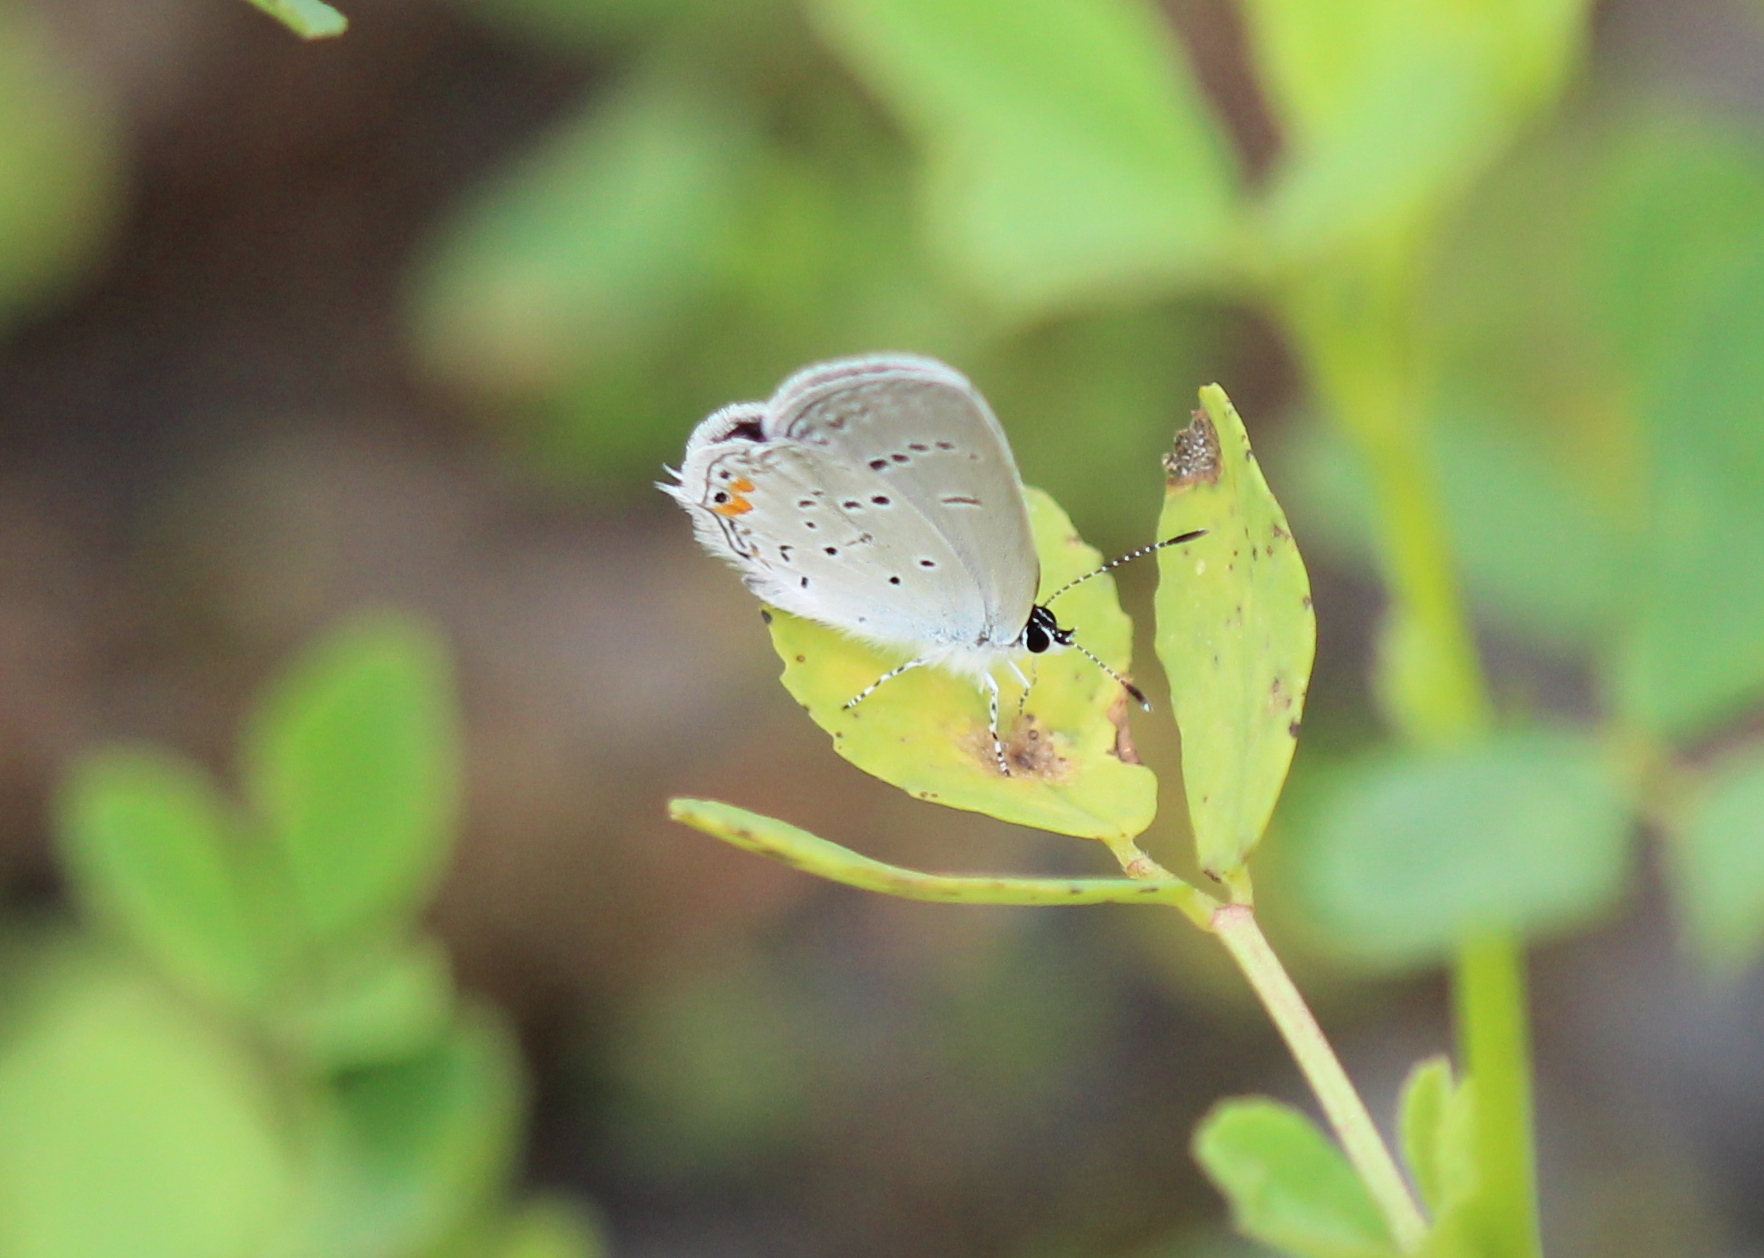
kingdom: Animalia
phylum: Arthropoda
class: Insecta
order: Lepidoptera
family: Lycaenidae
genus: Elkalyce
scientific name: Elkalyce comyntas
